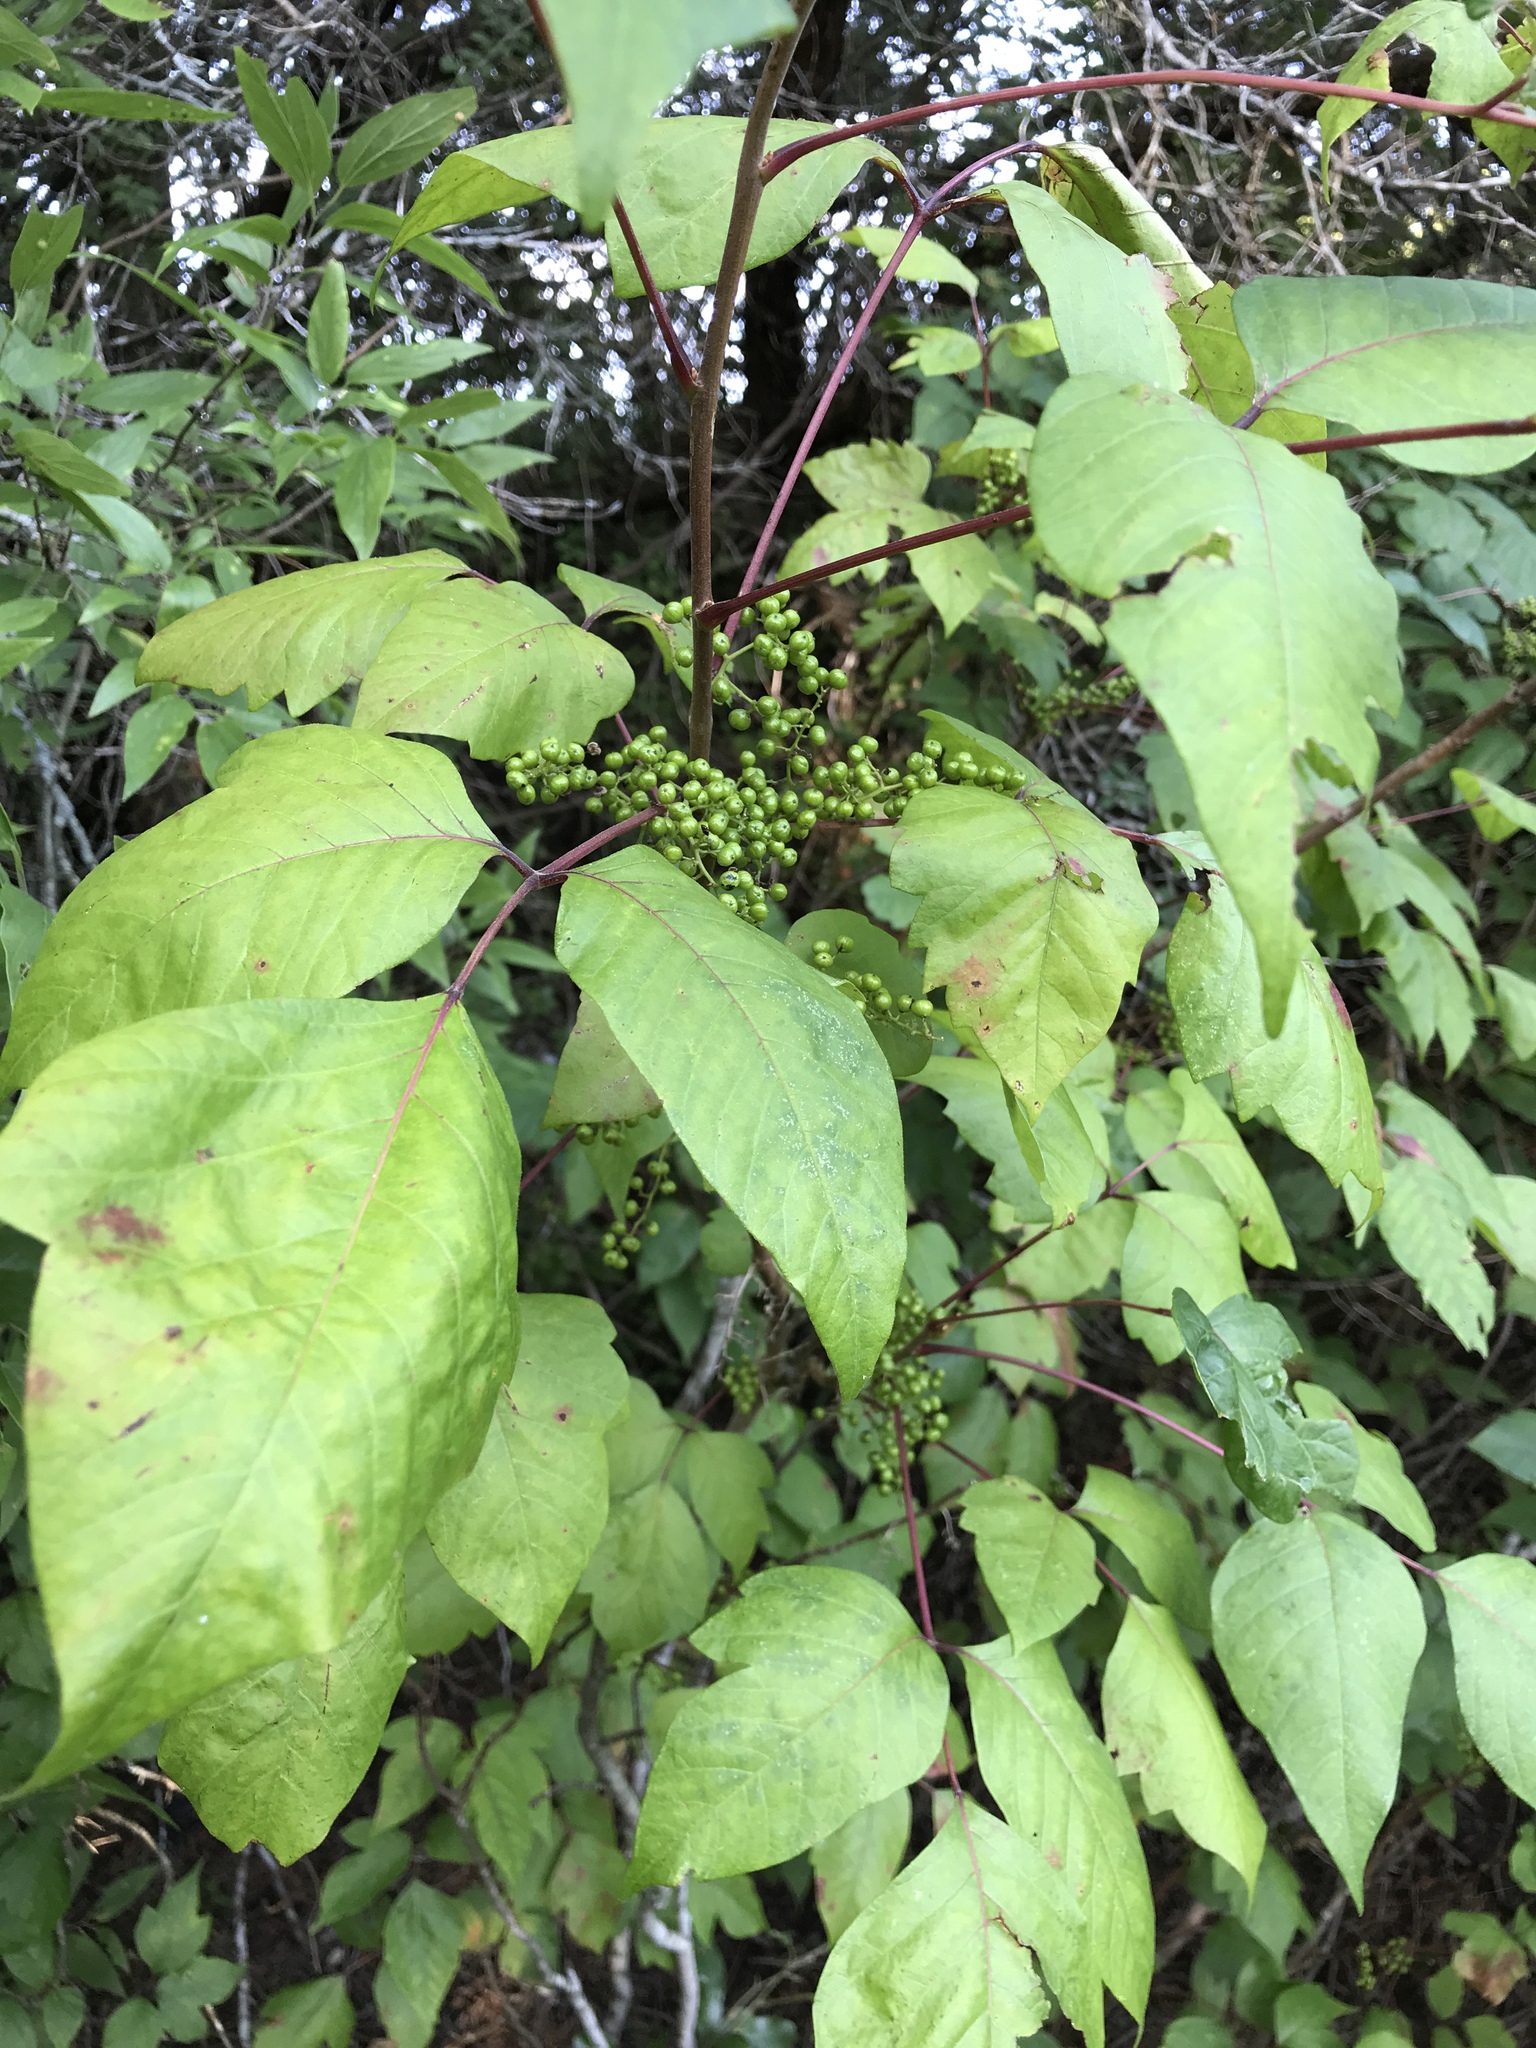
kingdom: Plantae
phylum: Tracheophyta
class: Magnoliopsida
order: Sapindales
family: Anacardiaceae
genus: Toxicodendron
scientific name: Toxicodendron radicans
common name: Poison ivy
